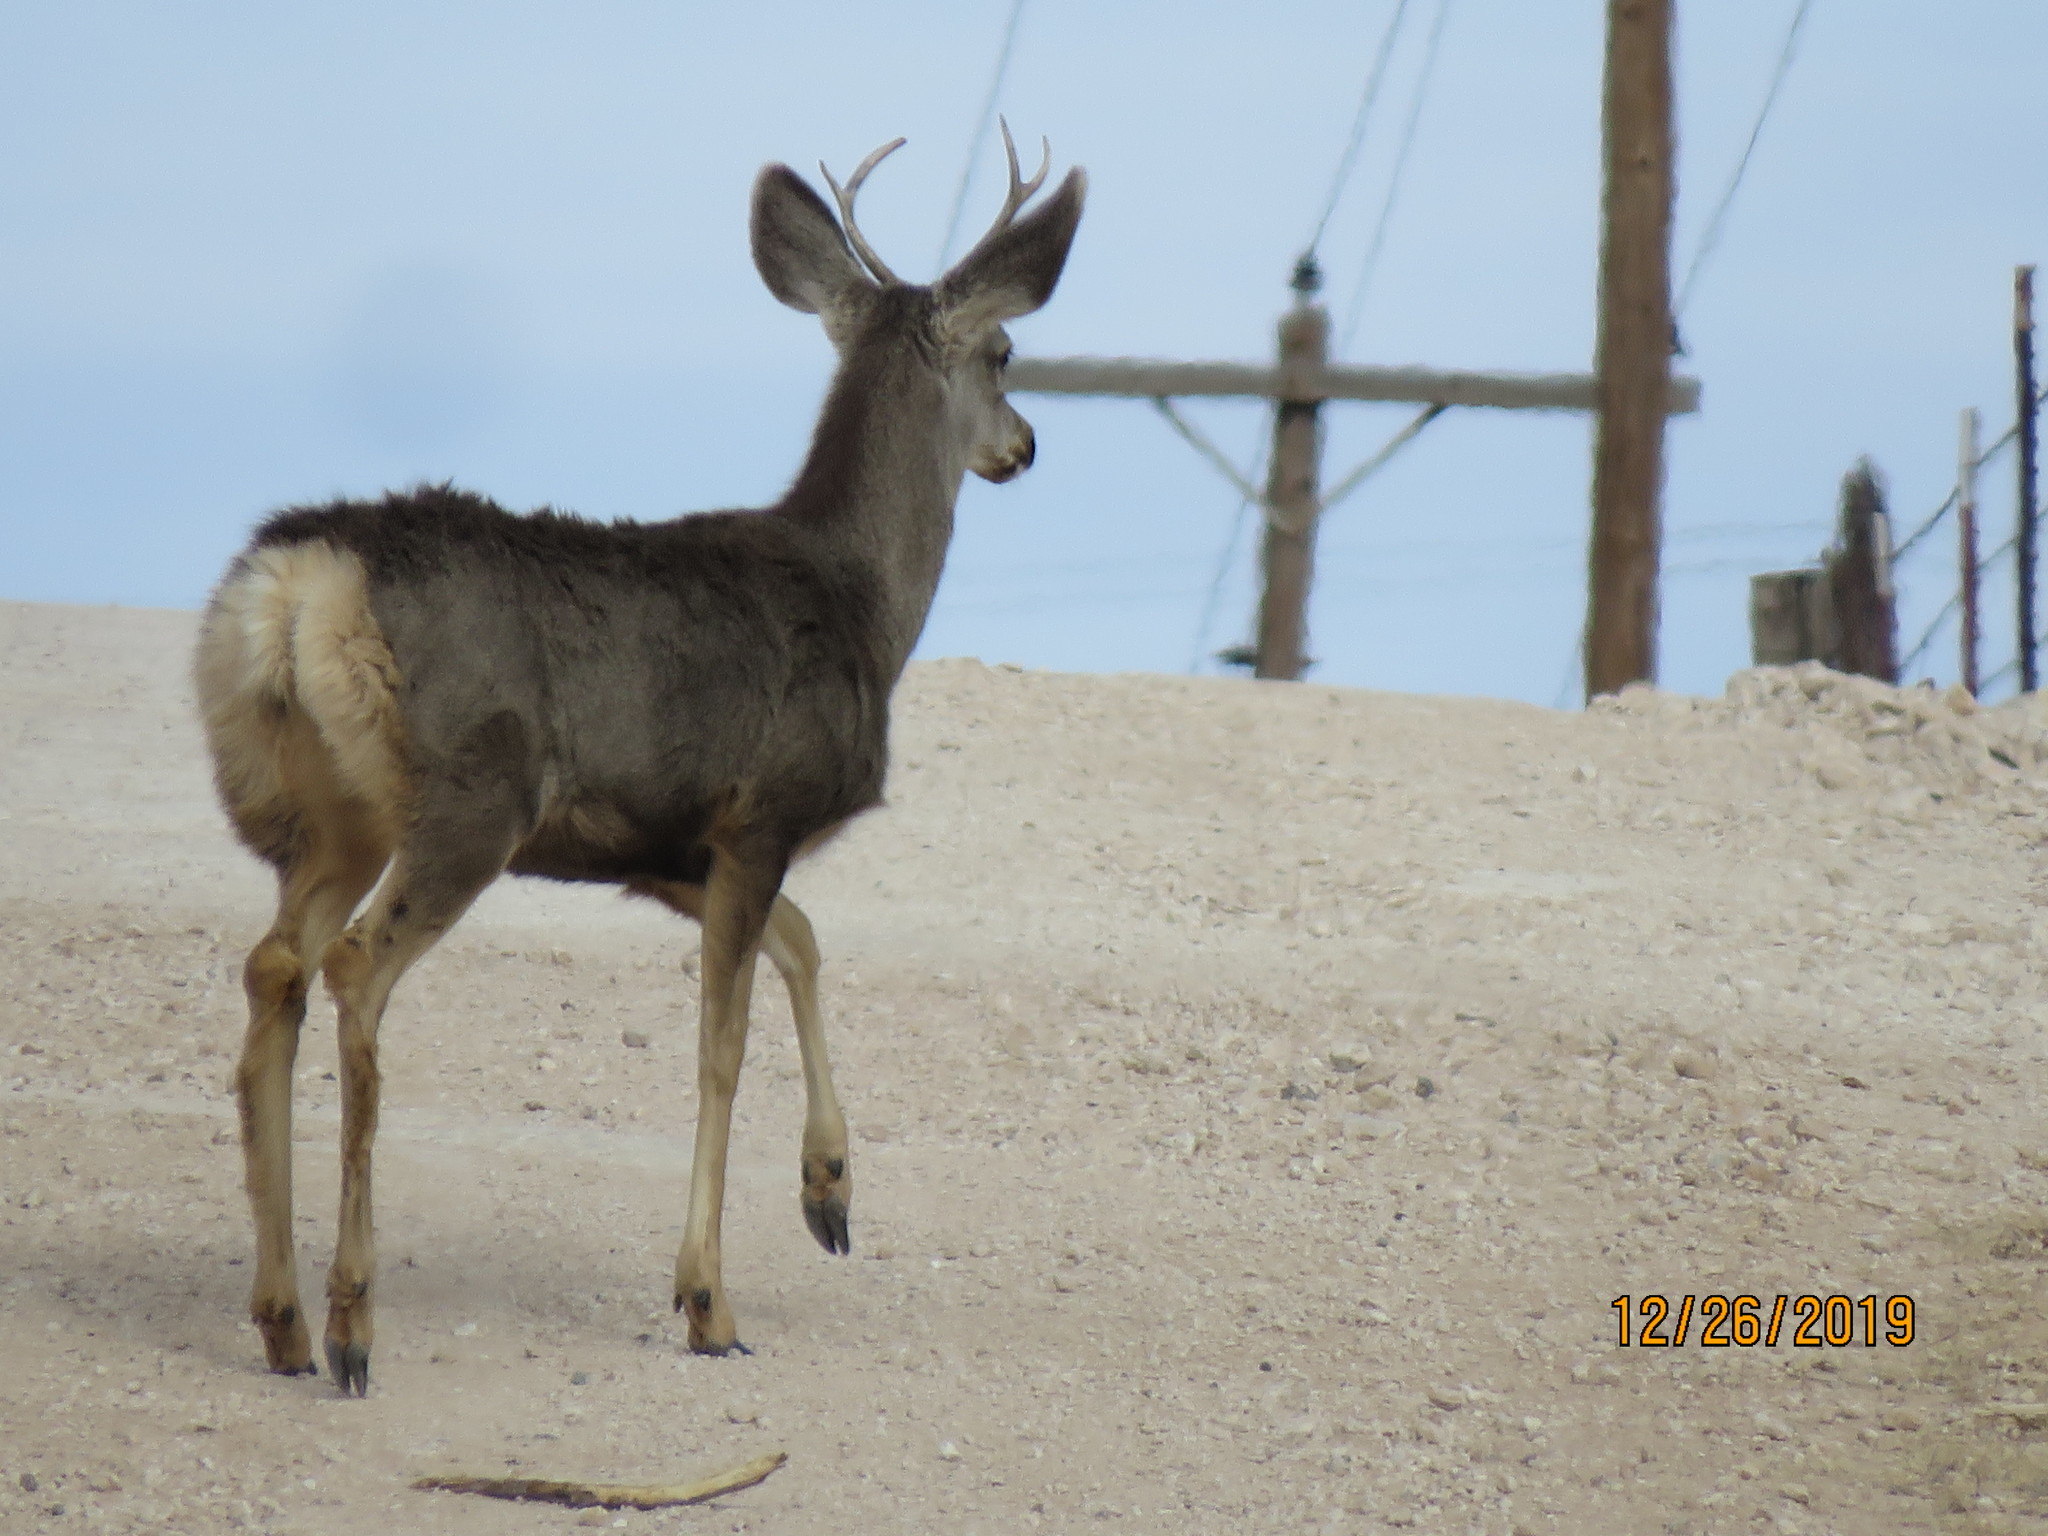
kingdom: Animalia
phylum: Chordata
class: Mammalia
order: Artiodactyla
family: Cervidae
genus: Odocoileus
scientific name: Odocoileus hemionus
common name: Mule deer
